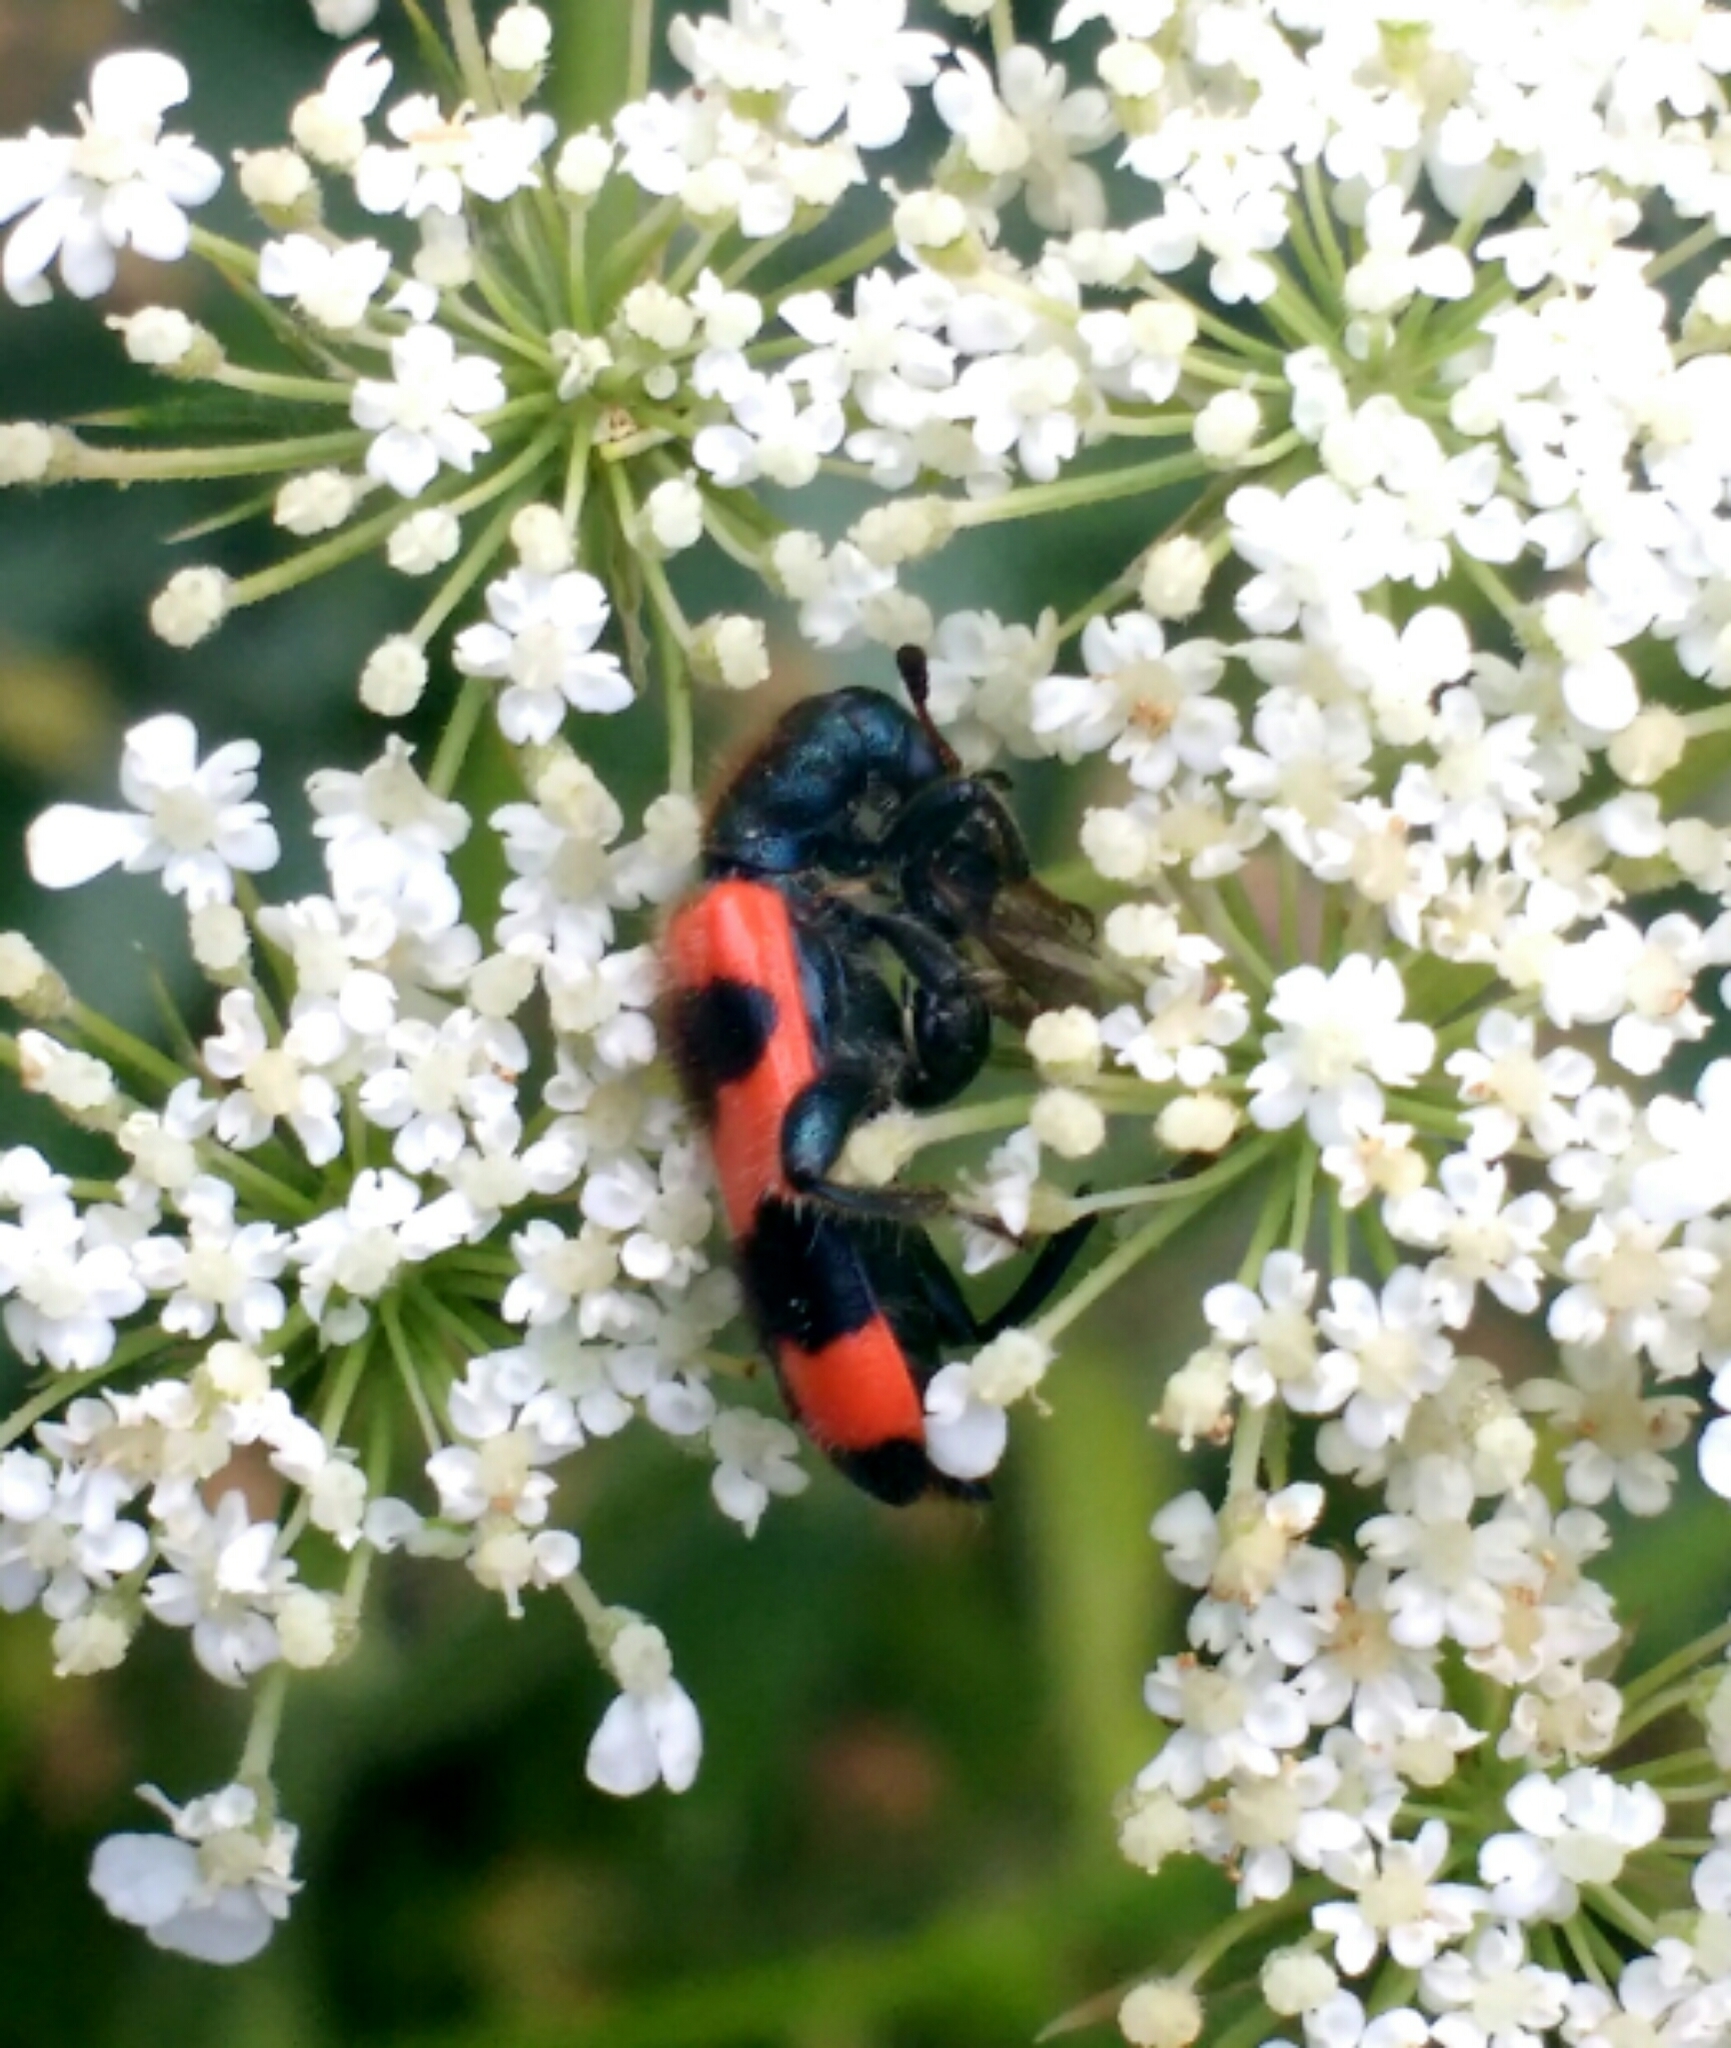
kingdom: Animalia
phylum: Arthropoda
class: Insecta
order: Coleoptera
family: Cleridae
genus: Trichodes
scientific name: Trichodes apiarius
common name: Bee-eating beetle
